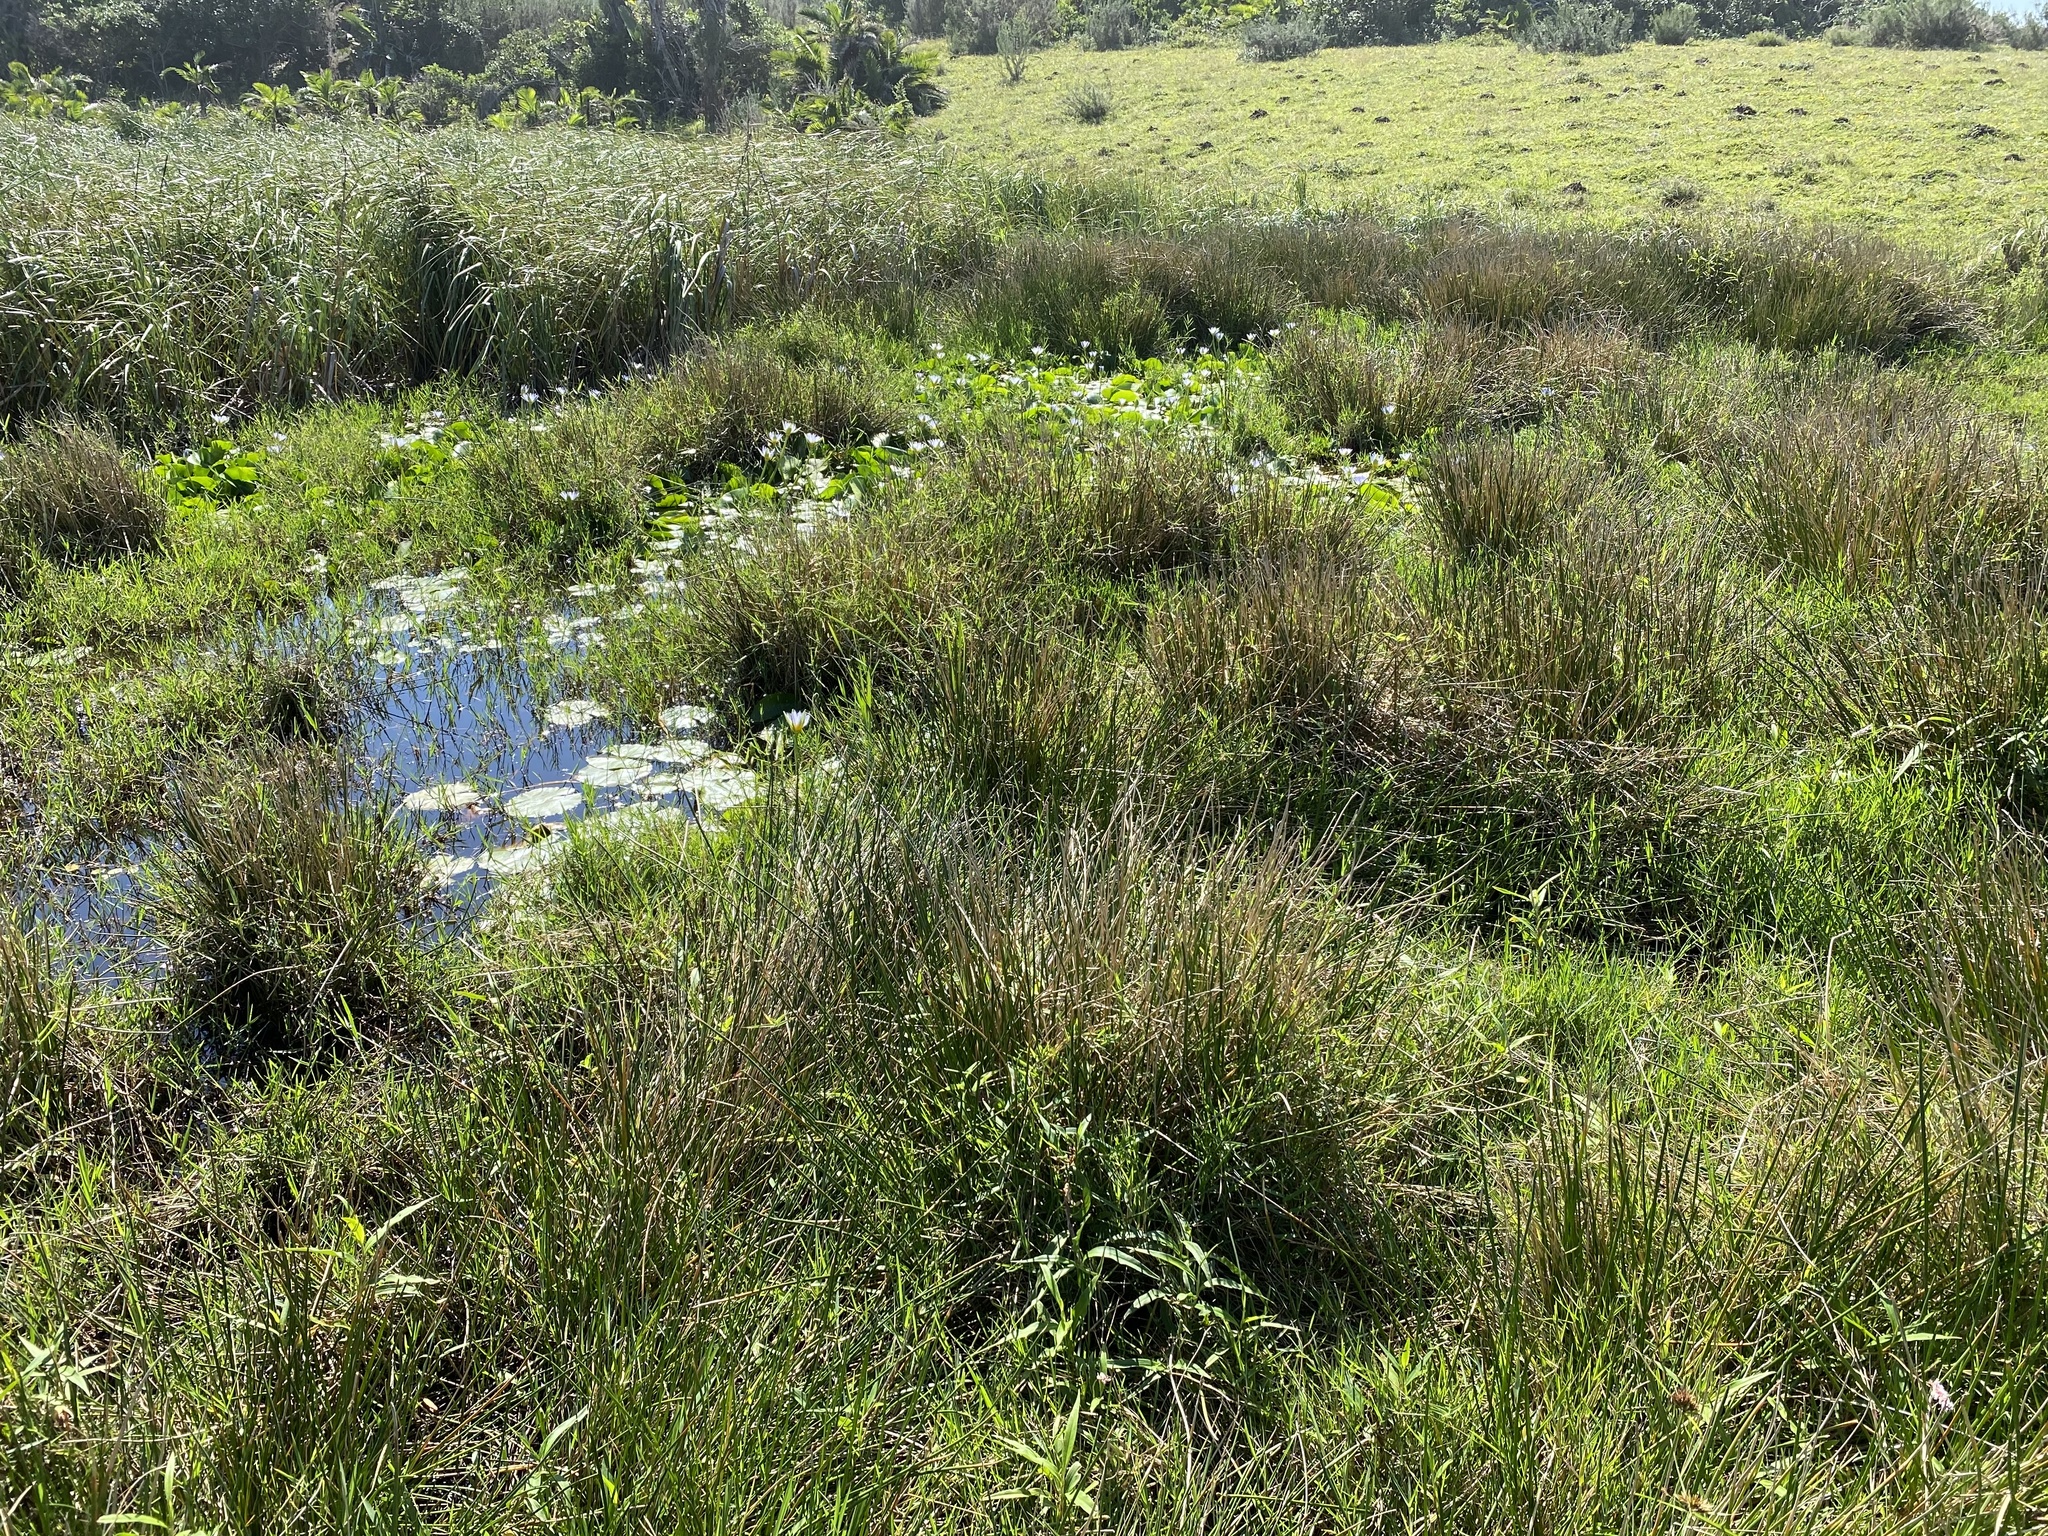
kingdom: Plantae
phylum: Tracheophyta
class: Magnoliopsida
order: Nymphaeales
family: Nymphaeaceae
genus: Nymphaea
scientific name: Nymphaea nouchali
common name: Blue lotus
